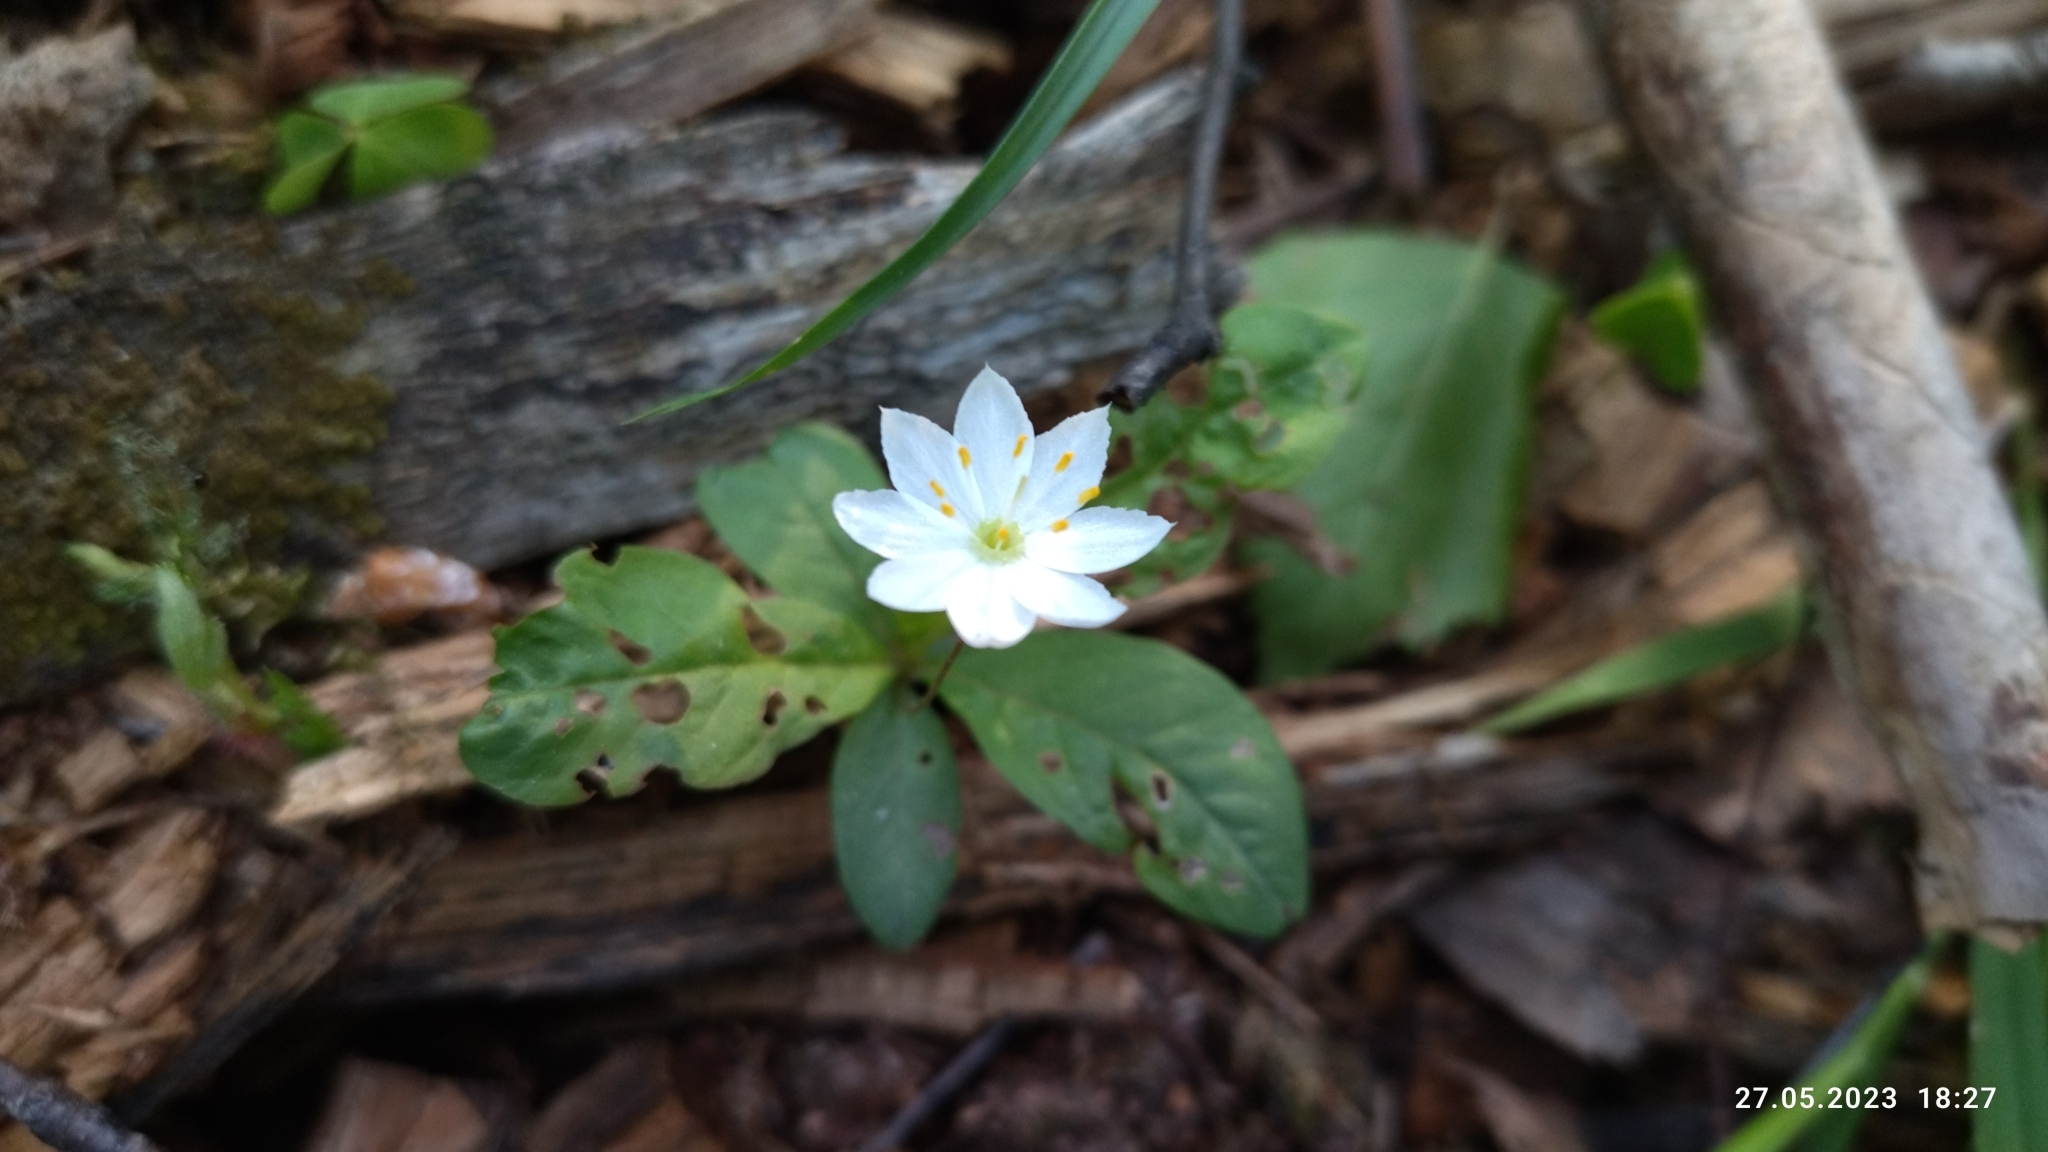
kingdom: Plantae
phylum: Tracheophyta
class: Magnoliopsida
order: Ericales
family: Primulaceae
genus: Lysimachia
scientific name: Lysimachia europaea
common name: Arctic starflower
